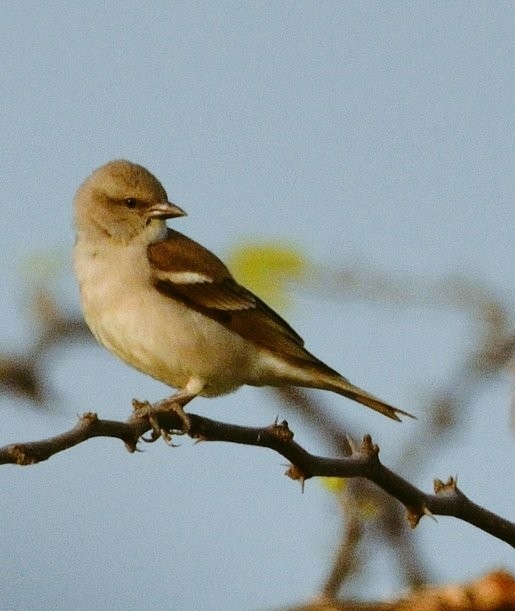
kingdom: Animalia
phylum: Chordata
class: Aves
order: Passeriformes
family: Passeridae
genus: Gymnoris
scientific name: Gymnoris xanthocollis
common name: Yellow-throated sparrow
